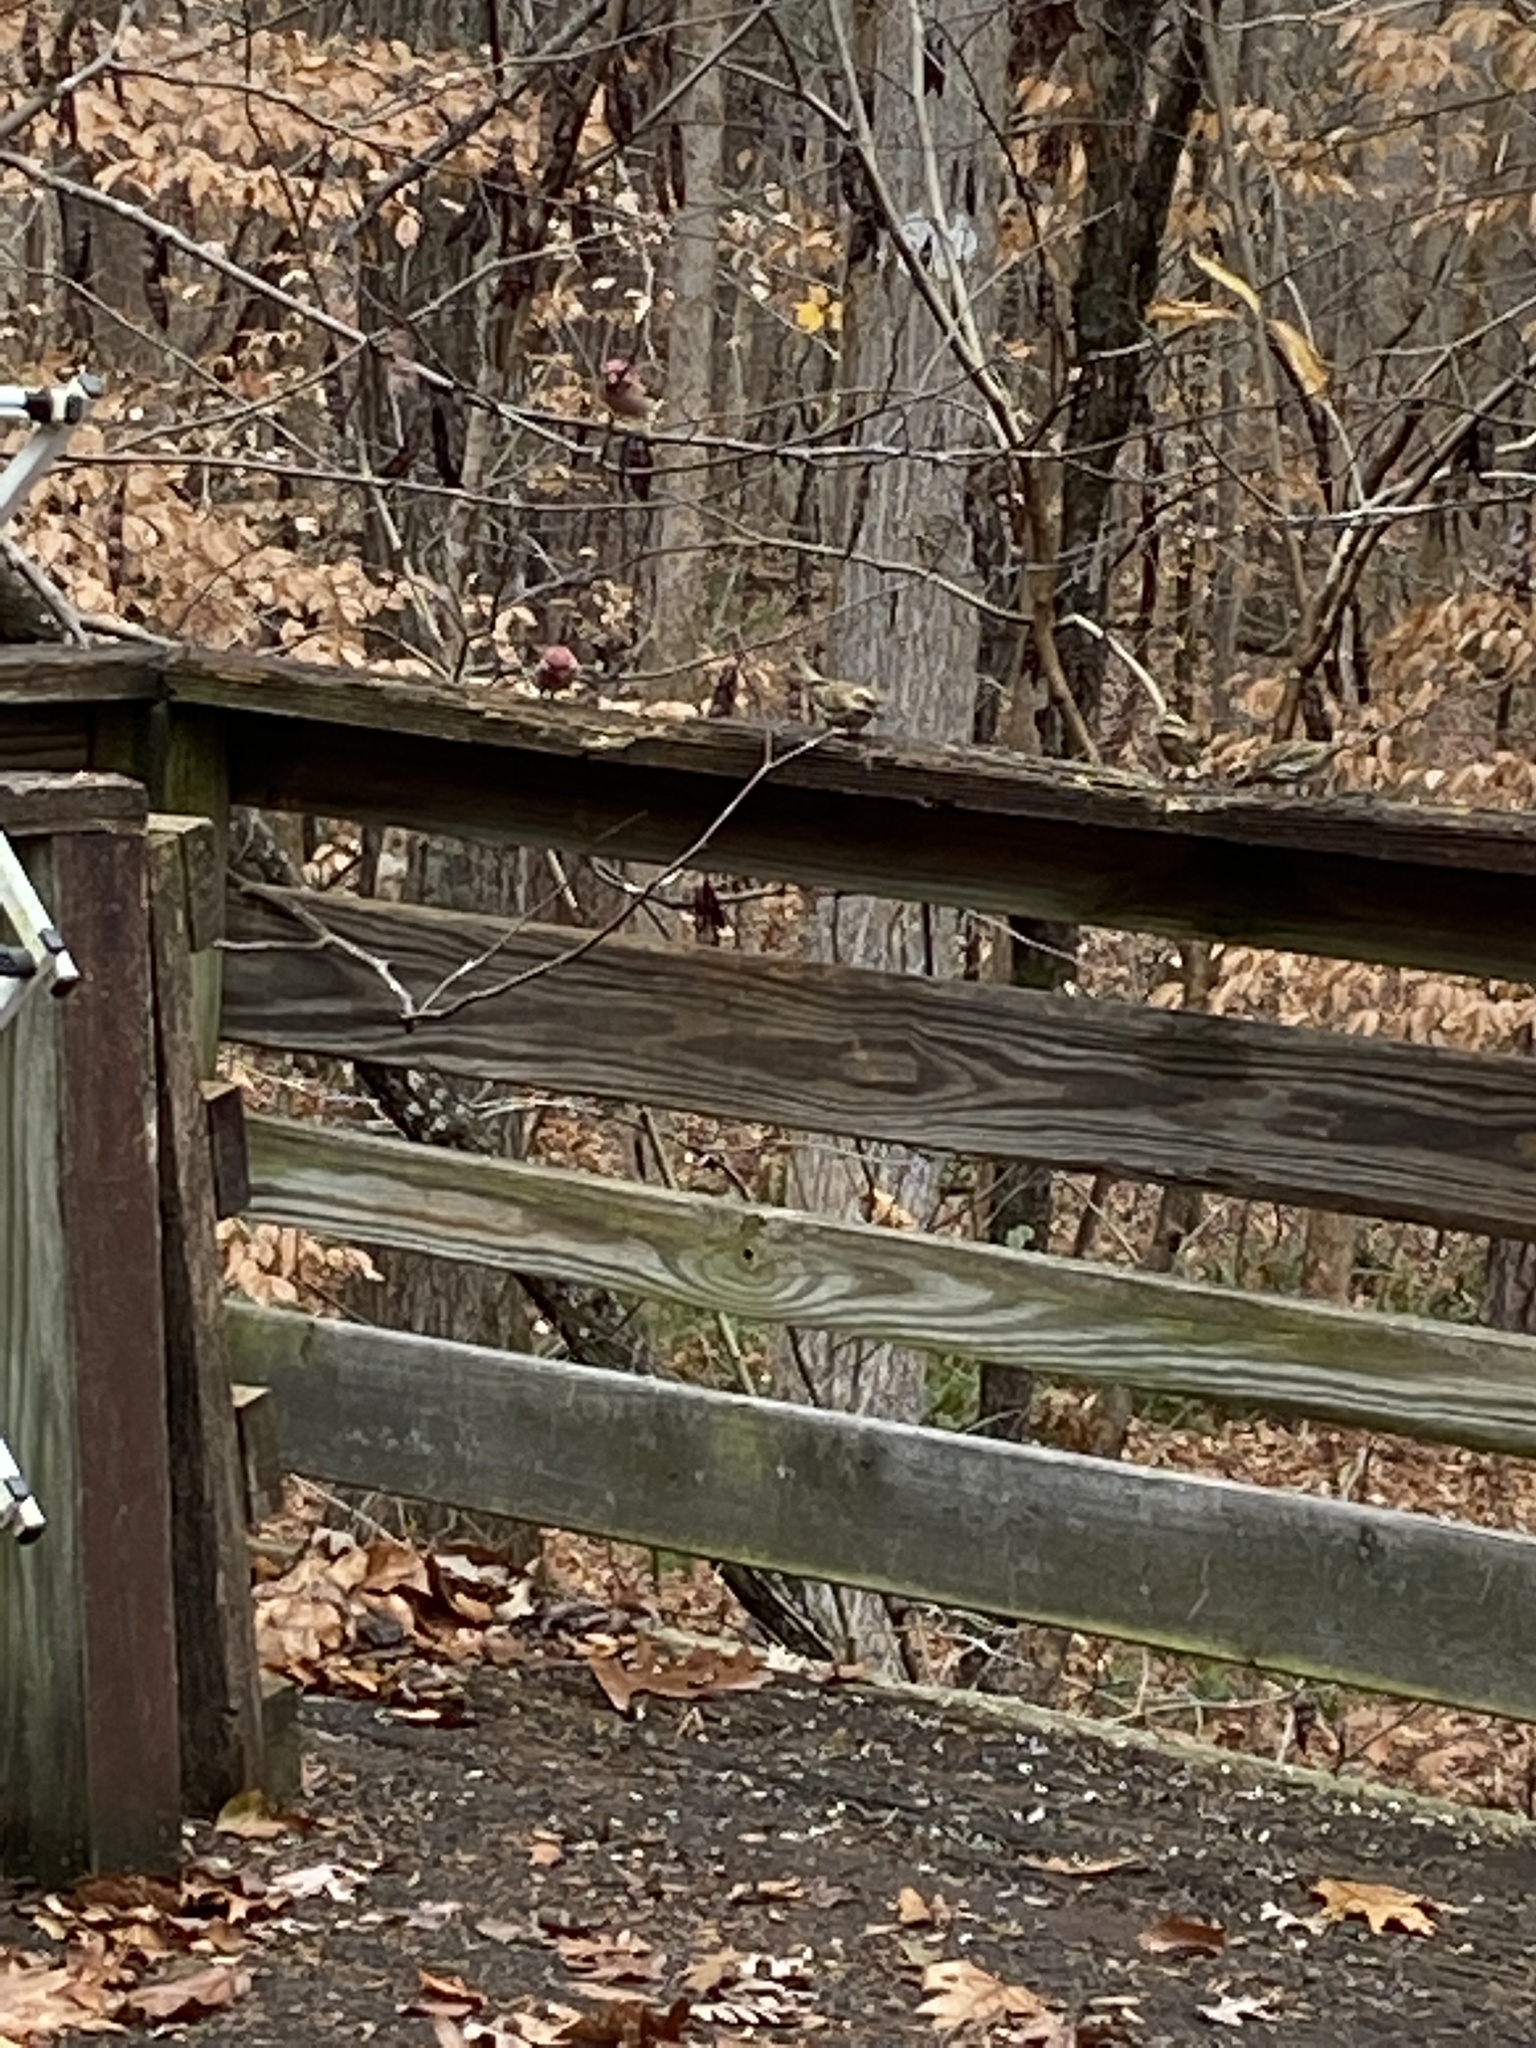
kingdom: Animalia
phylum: Chordata
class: Aves
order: Passeriformes
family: Fringillidae
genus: Haemorhous
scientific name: Haemorhous purpureus
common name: Purple finch
